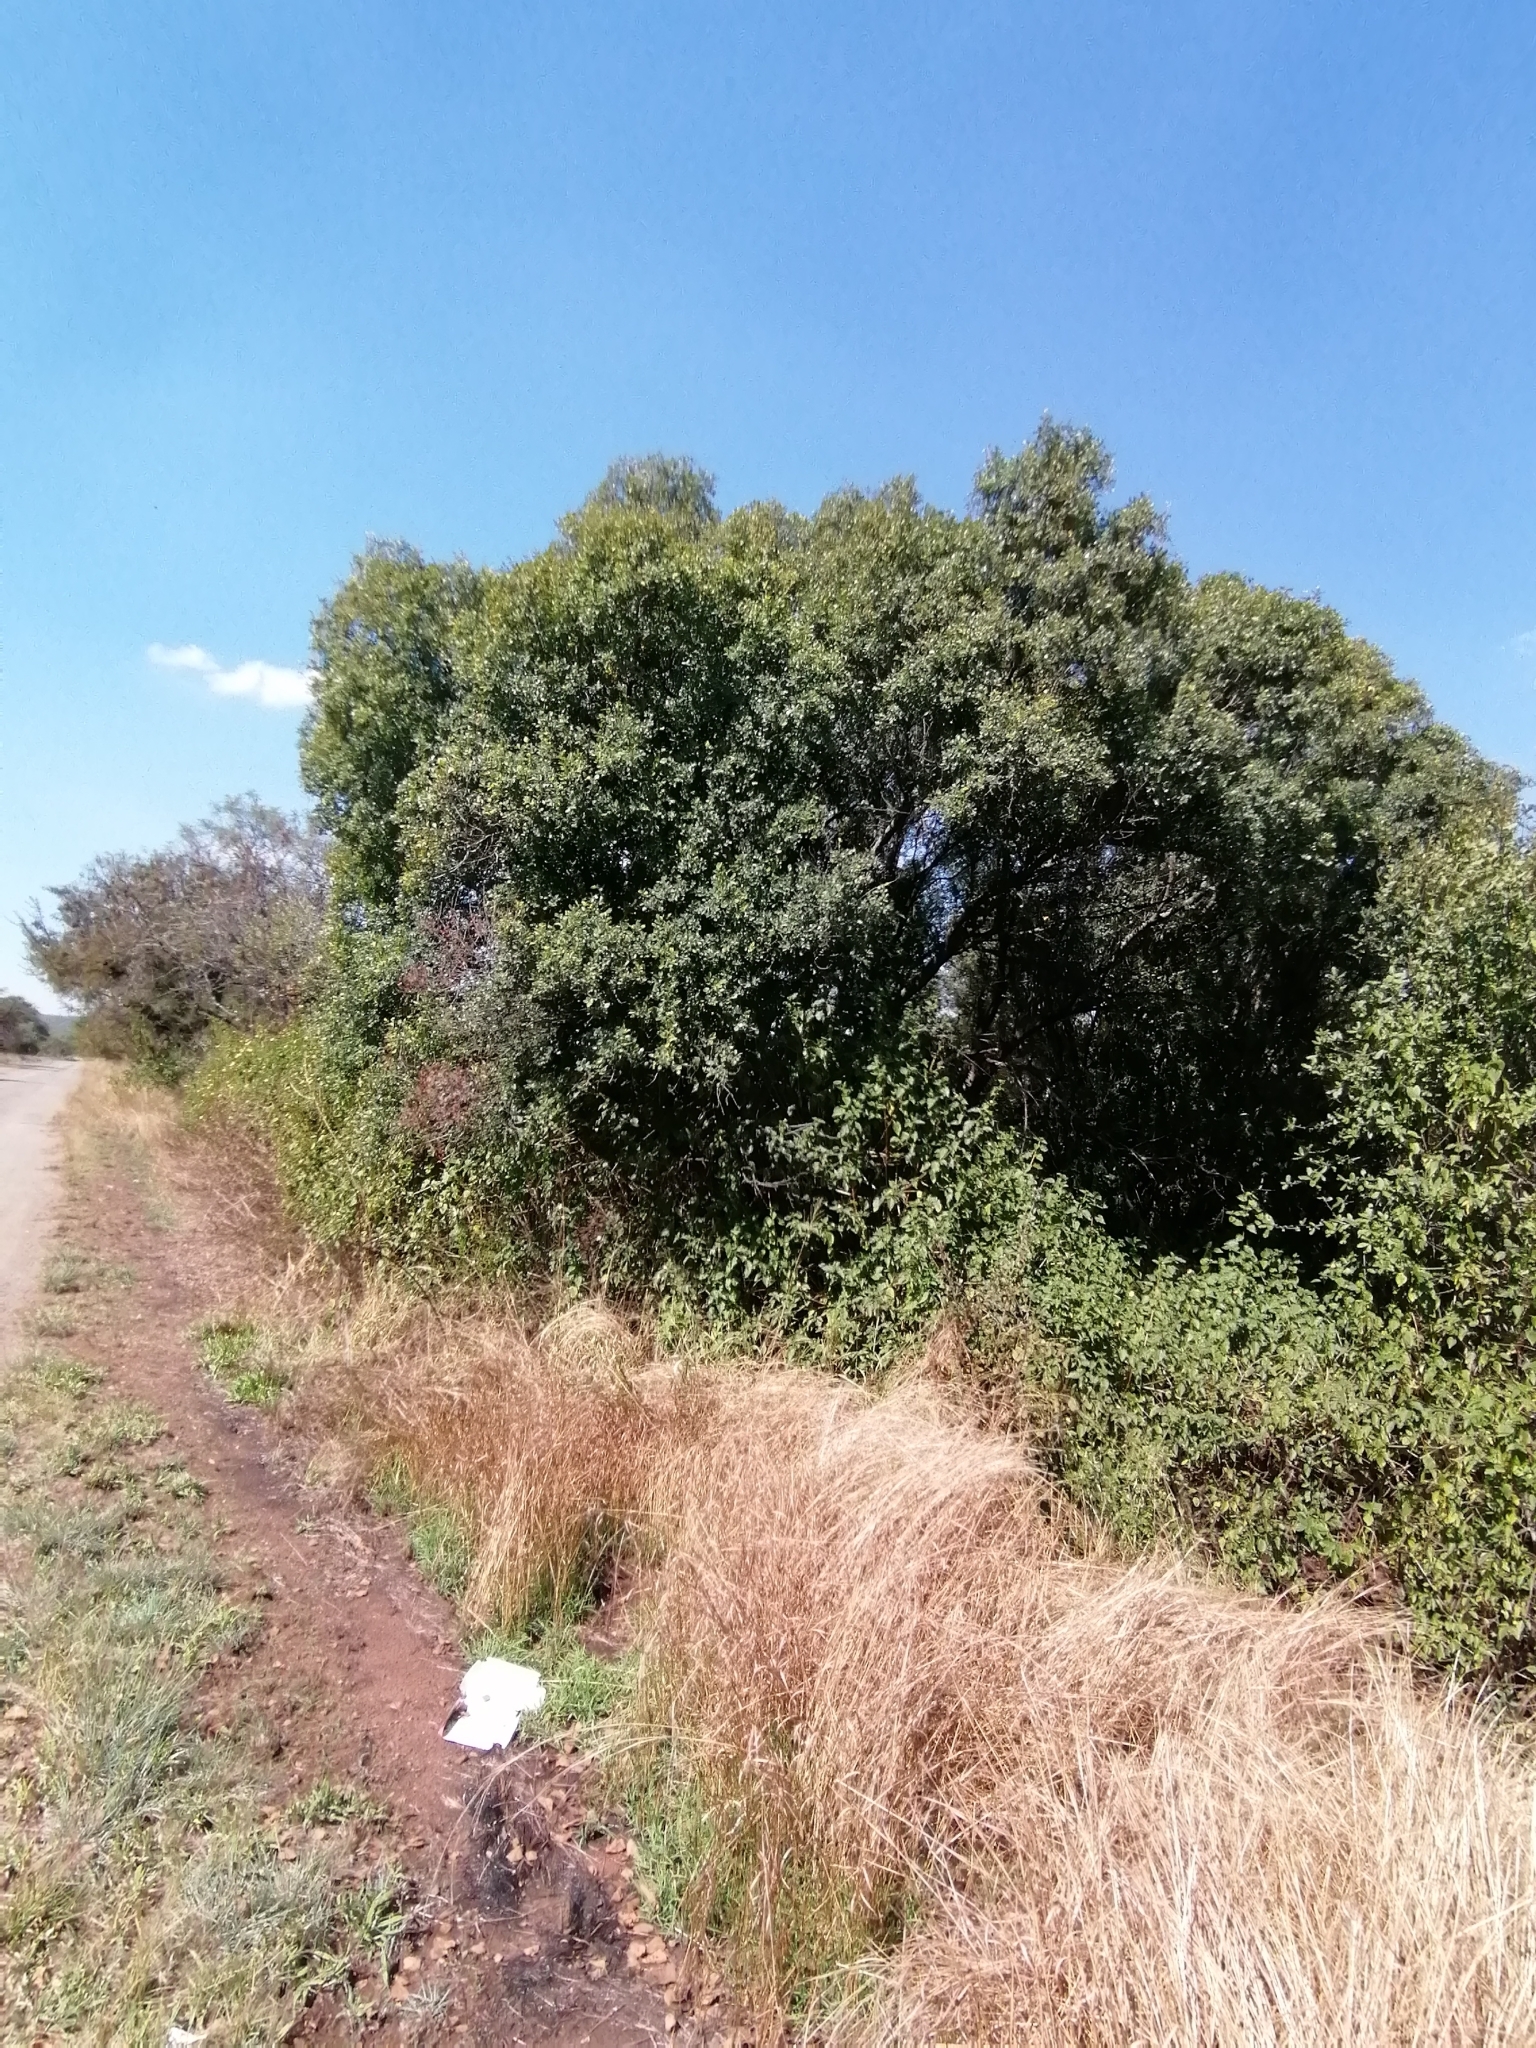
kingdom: Plantae
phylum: Tracheophyta
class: Magnoliopsida
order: Rosales
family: Rhamnaceae
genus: Phyllogeiton
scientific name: Phyllogeiton zeyheri
